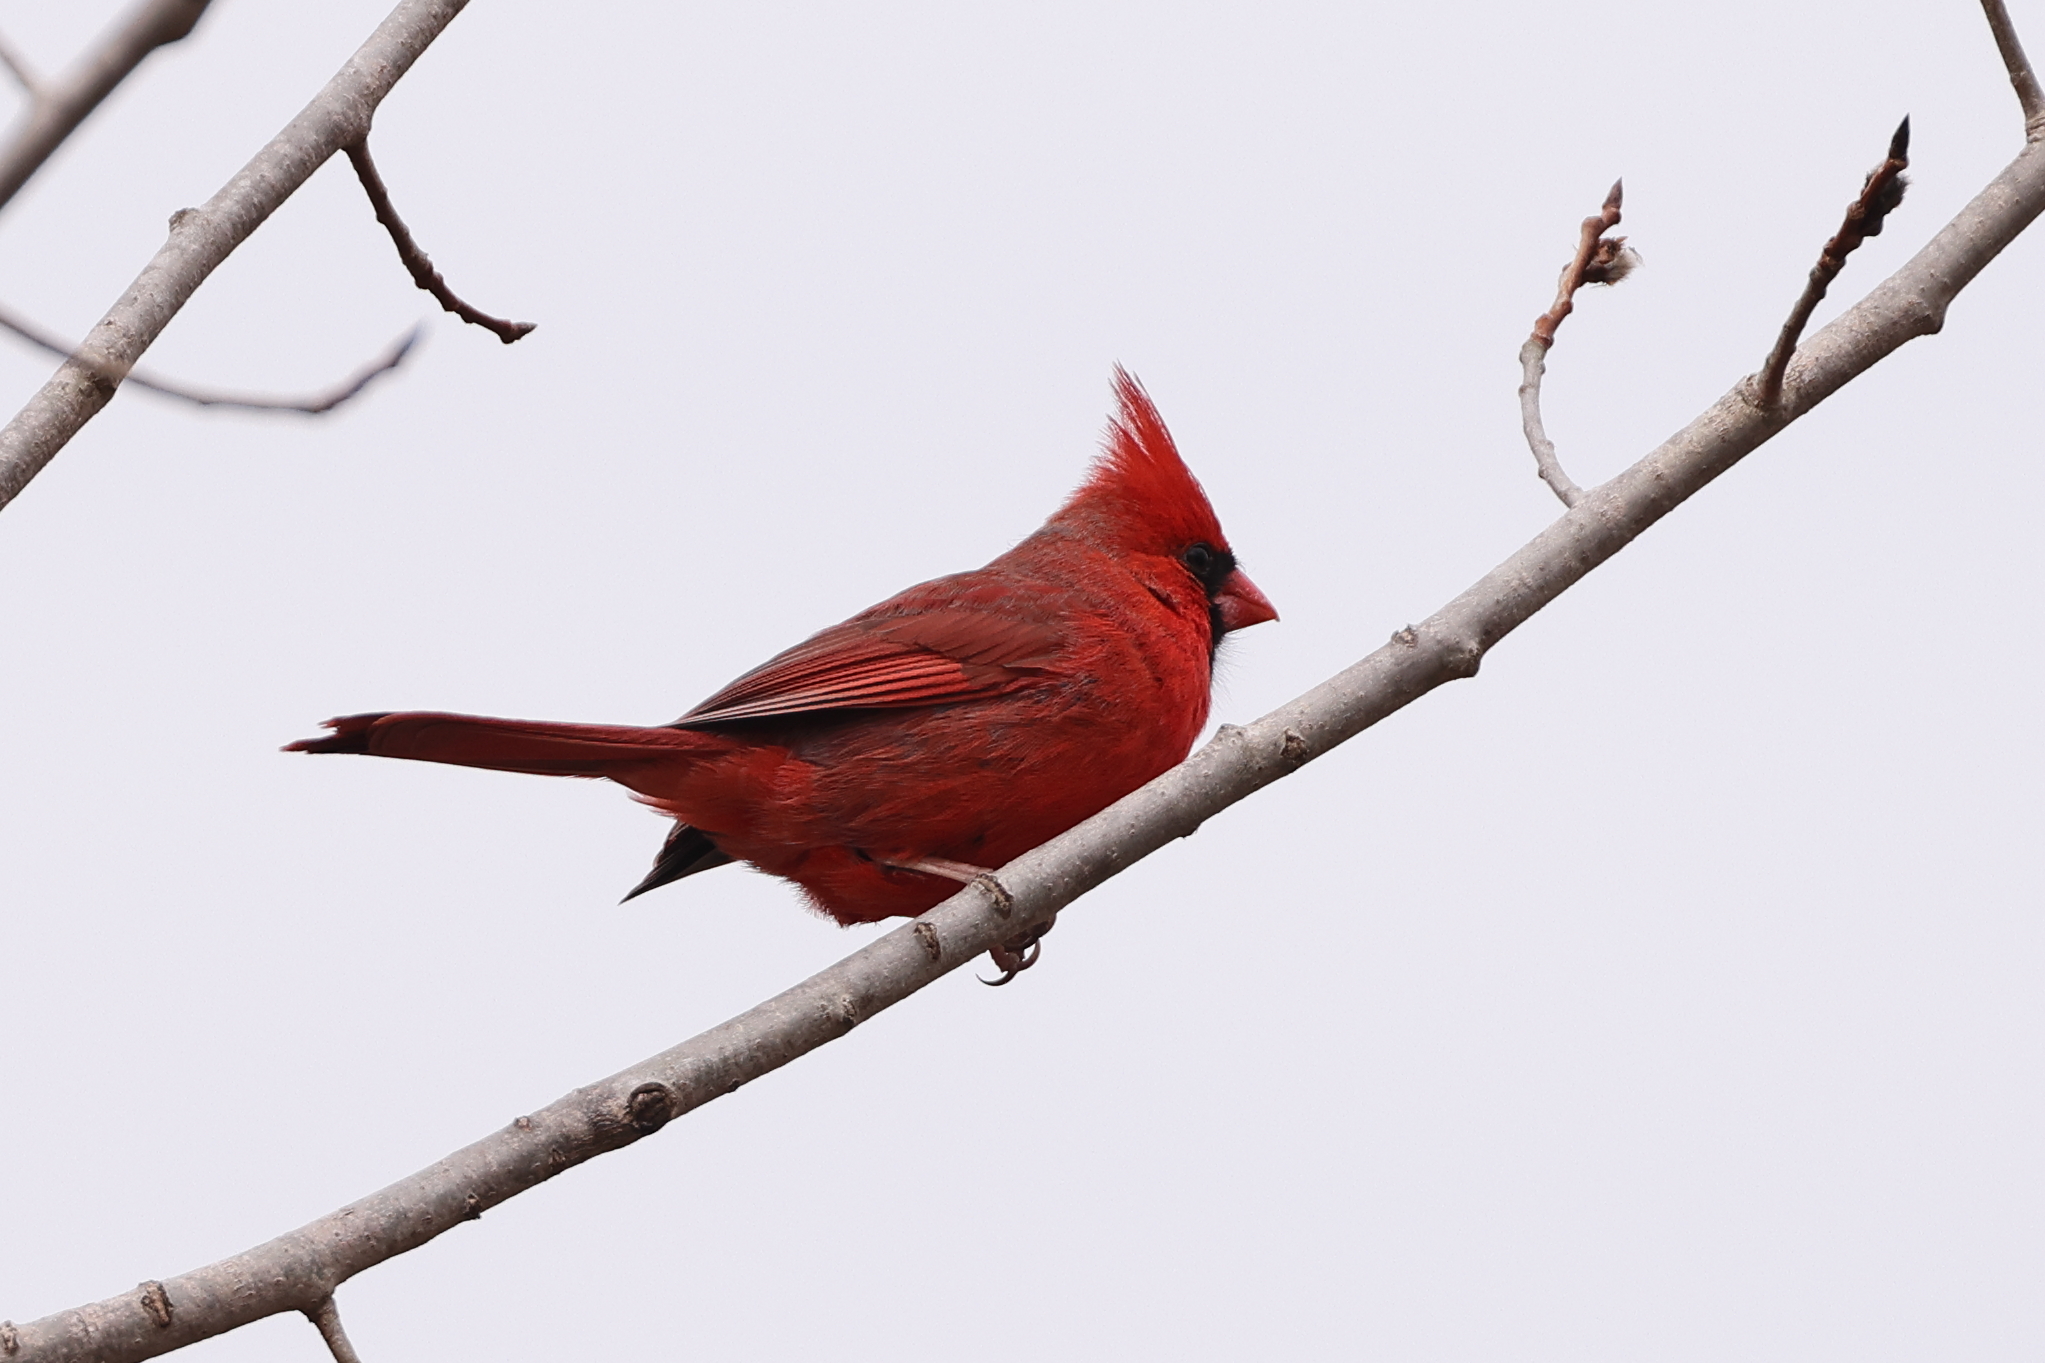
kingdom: Animalia
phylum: Chordata
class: Aves
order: Passeriformes
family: Cardinalidae
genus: Cardinalis
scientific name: Cardinalis cardinalis
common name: Northern cardinal
